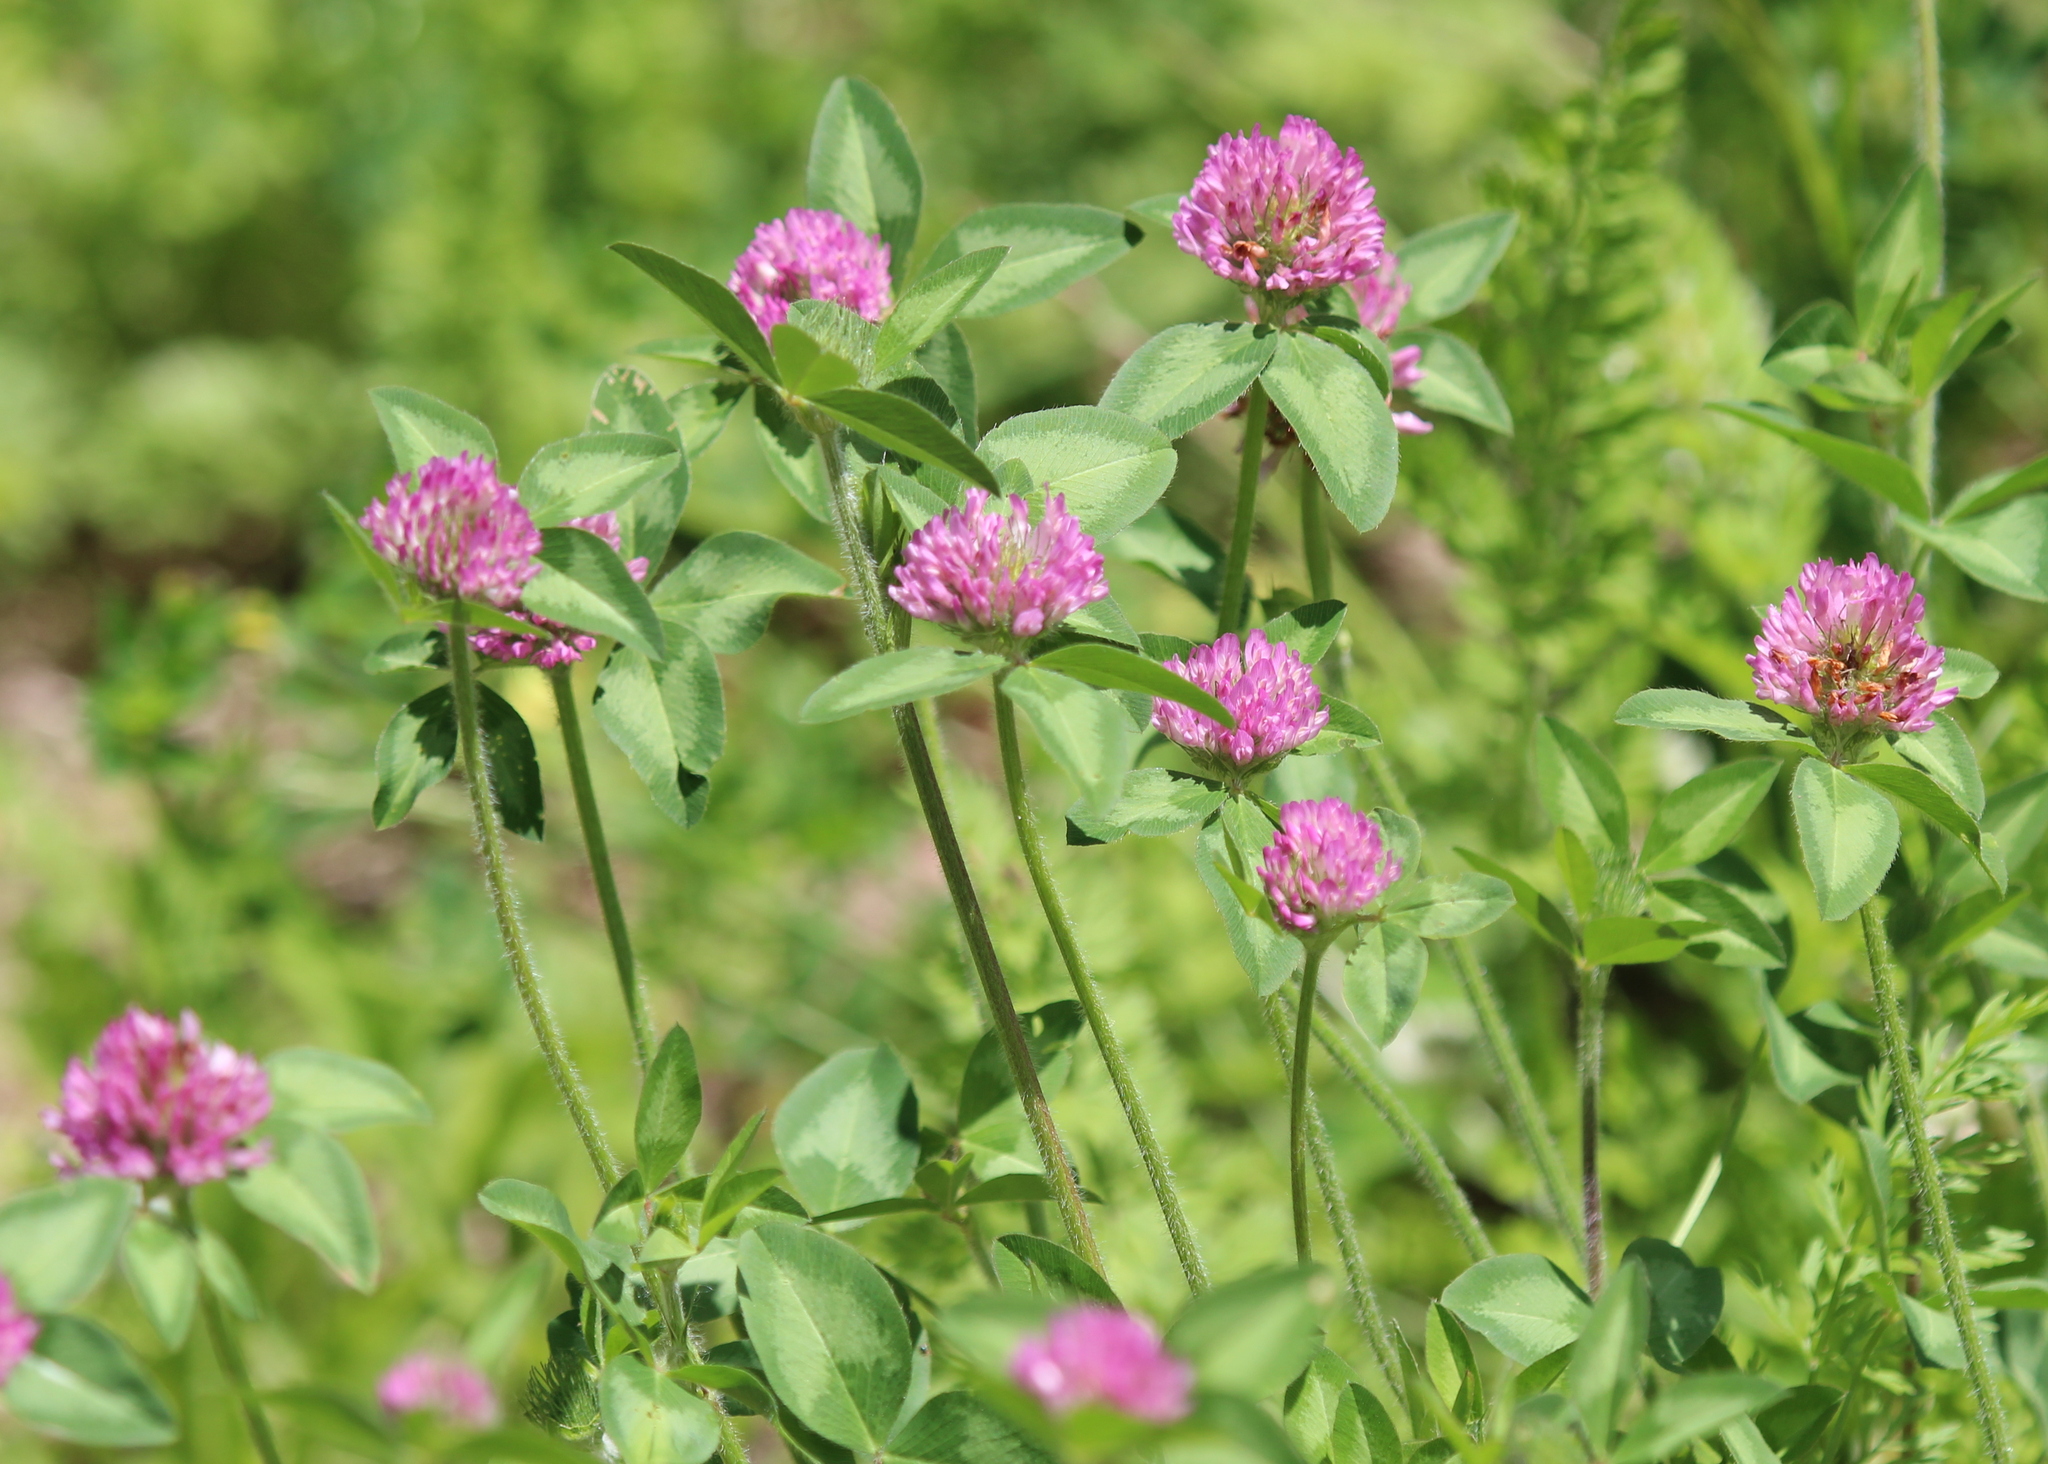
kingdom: Plantae
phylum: Tracheophyta
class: Magnoliopsida
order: Fabales
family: Fabaceae
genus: Trifolium
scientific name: Trifolium pratense
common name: Red clover
